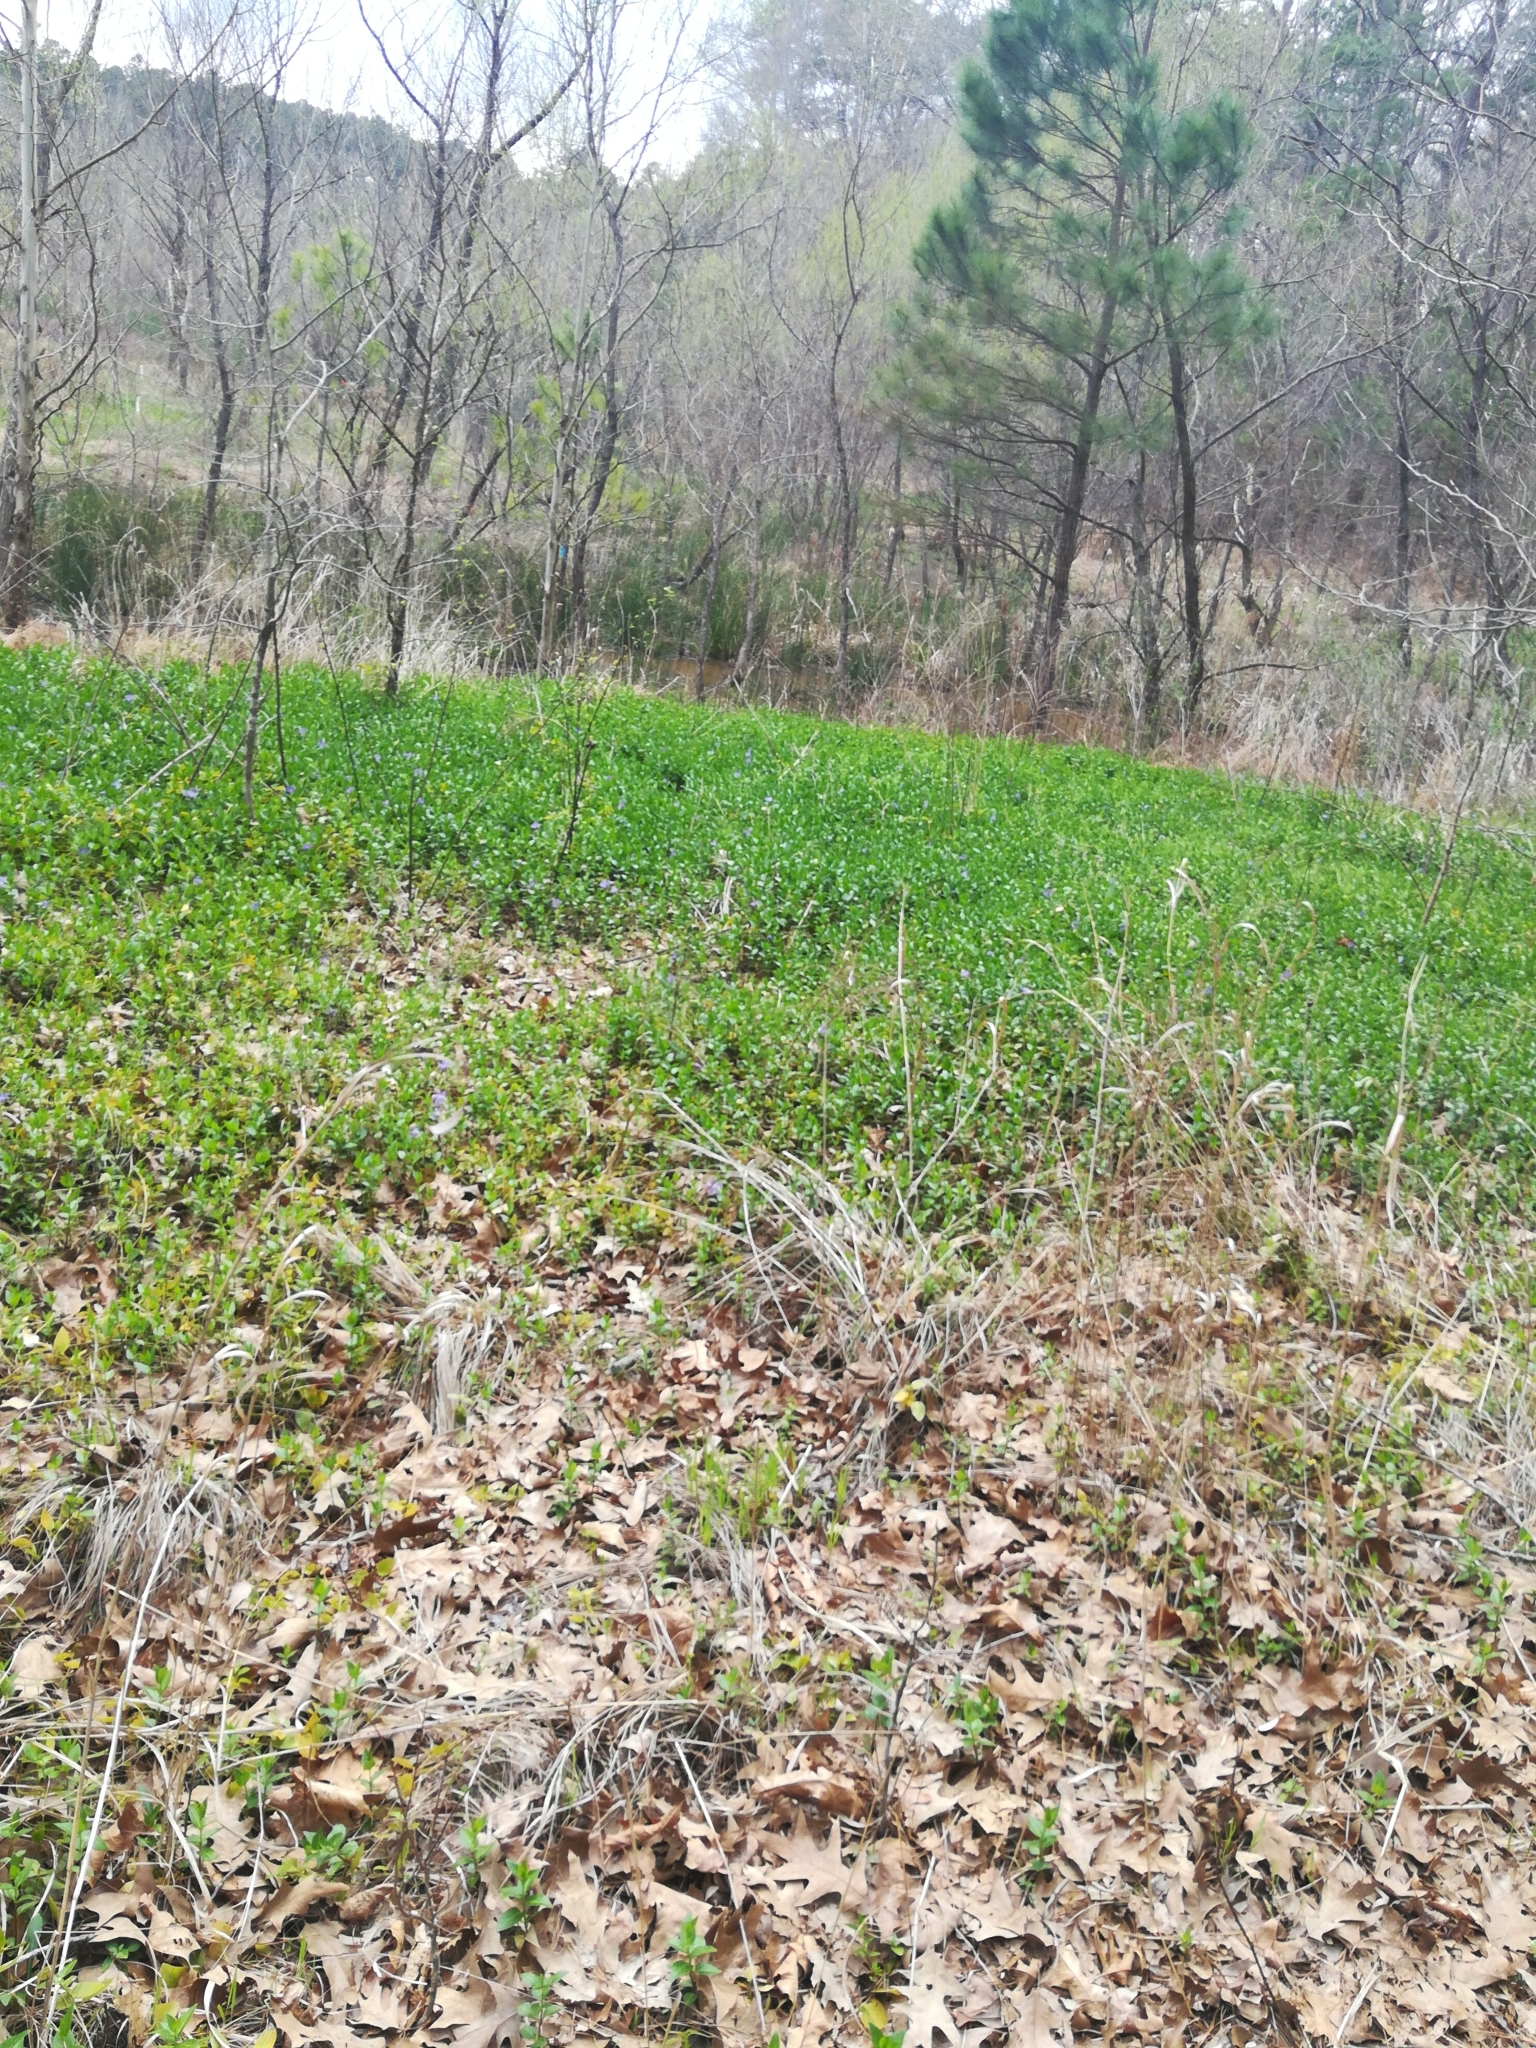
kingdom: Plantae
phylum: Tracheophyta
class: Magnoliopsida
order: Gentianales
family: Apocynaceae
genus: Vinca
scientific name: Vinca major
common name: Greater periwinkle
